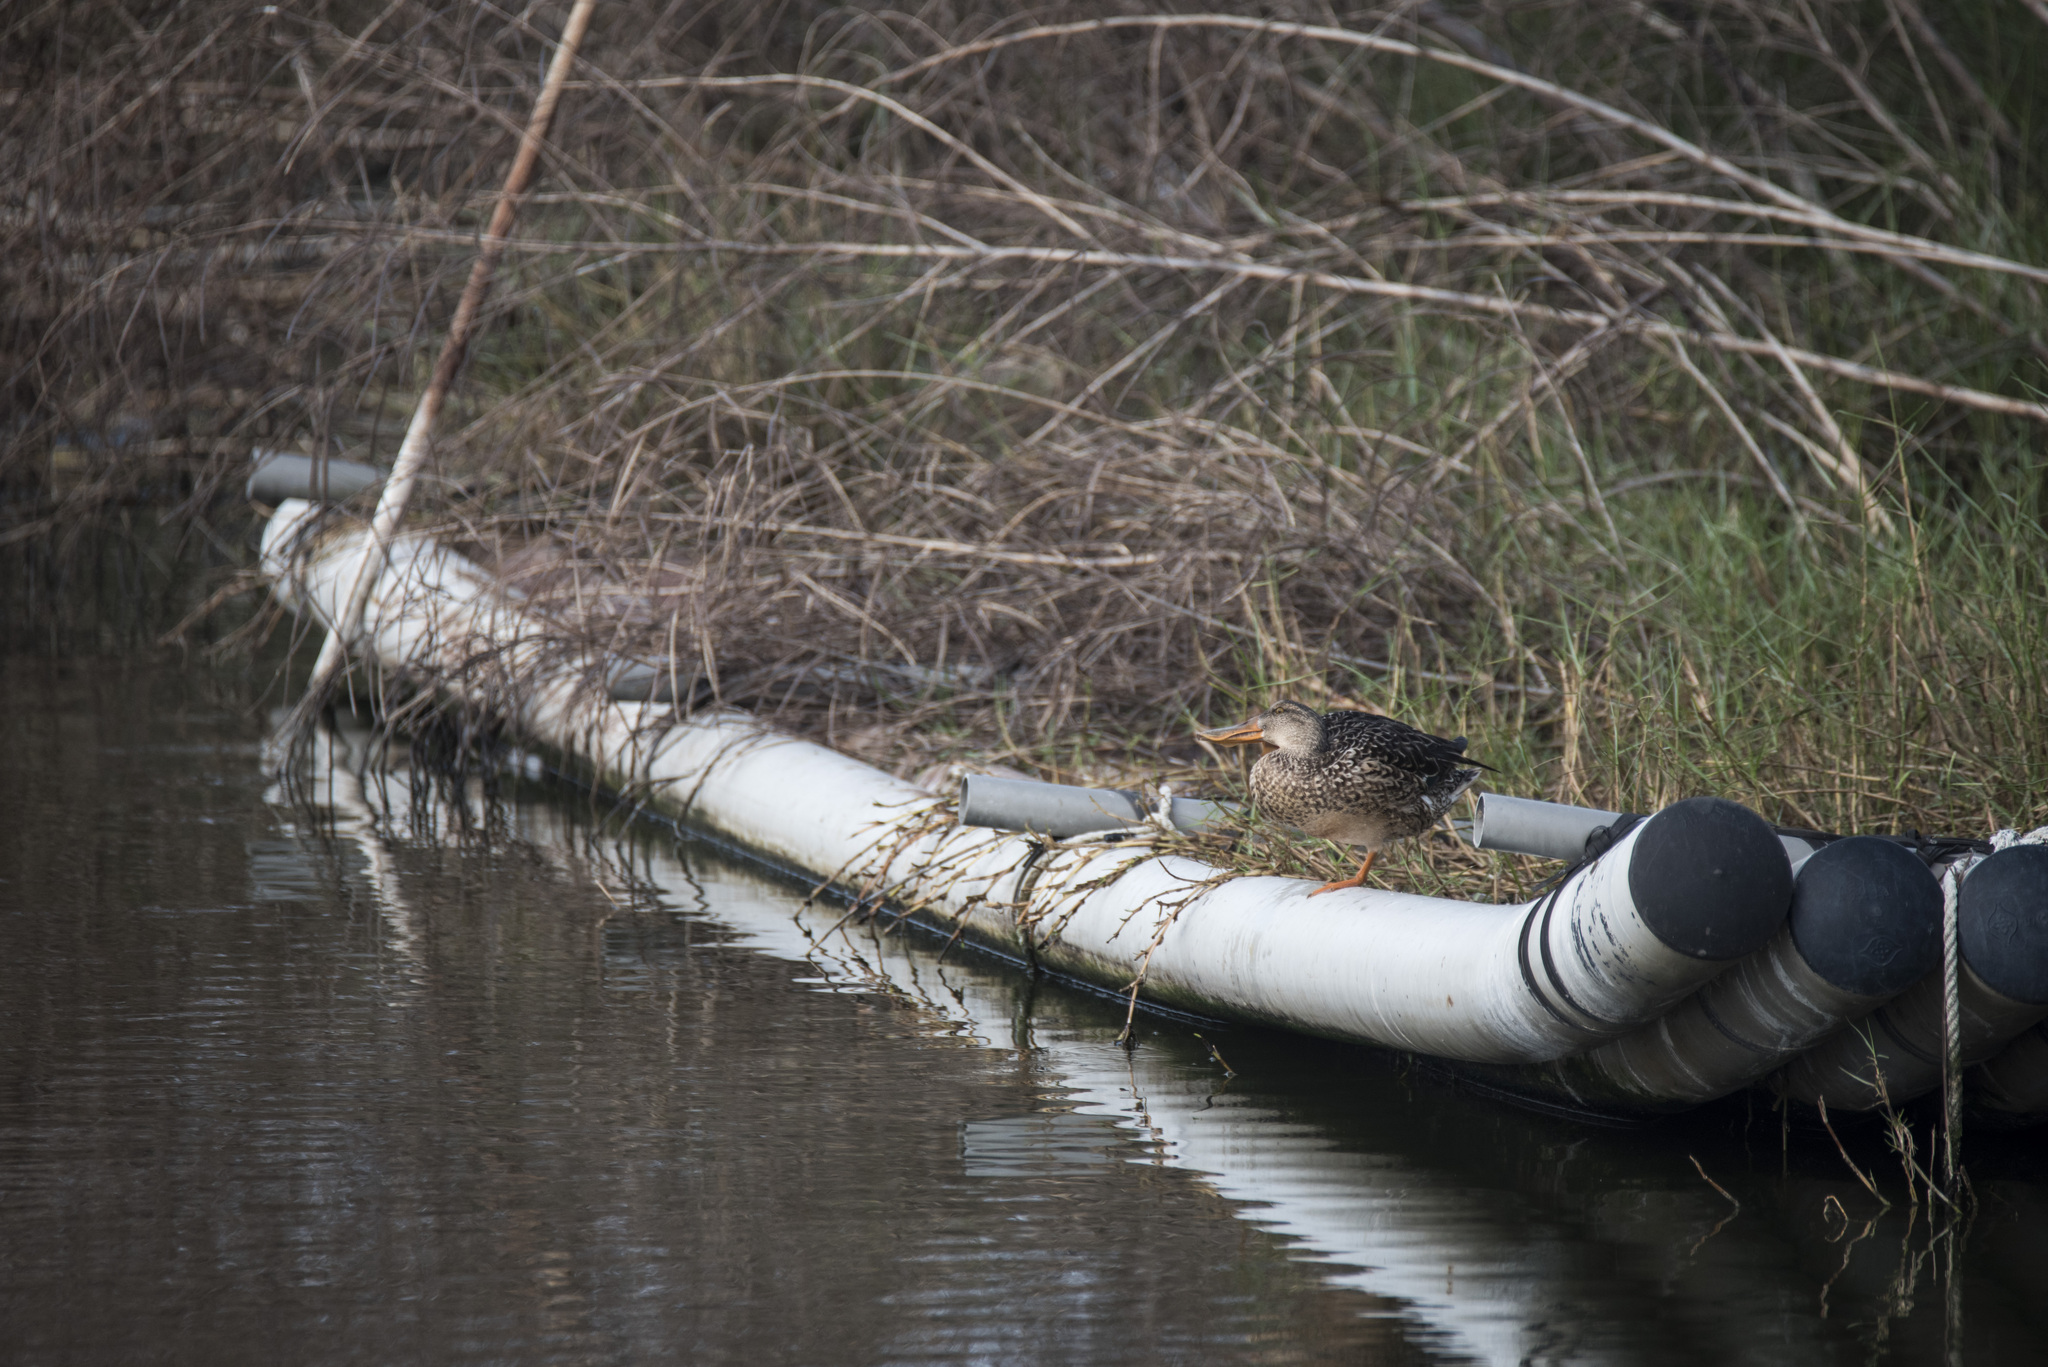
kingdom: Animalia
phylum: Chordata
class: Aves
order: Anseriformes
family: Anatidae
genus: Spatula
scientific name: Spatula clypeata
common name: Northern shoveler
